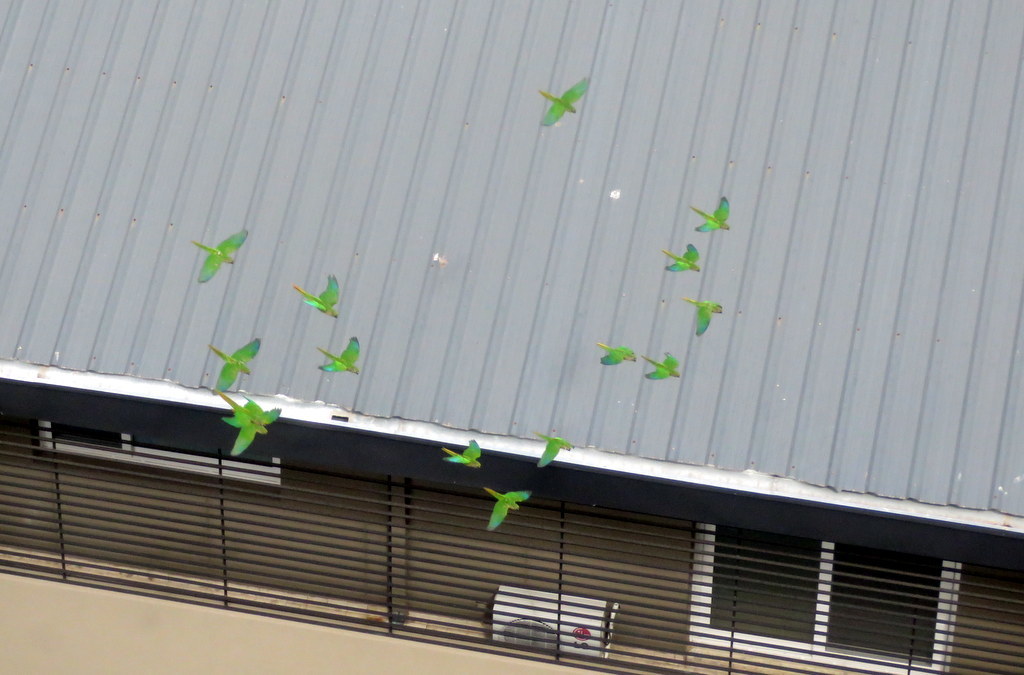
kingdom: Animalia
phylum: Chordata
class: Aves
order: Psittaciformes
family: Psittacidae
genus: Pyrrhura
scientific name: Pyrrhura frontalis
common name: Maroon-bellied parakeet
